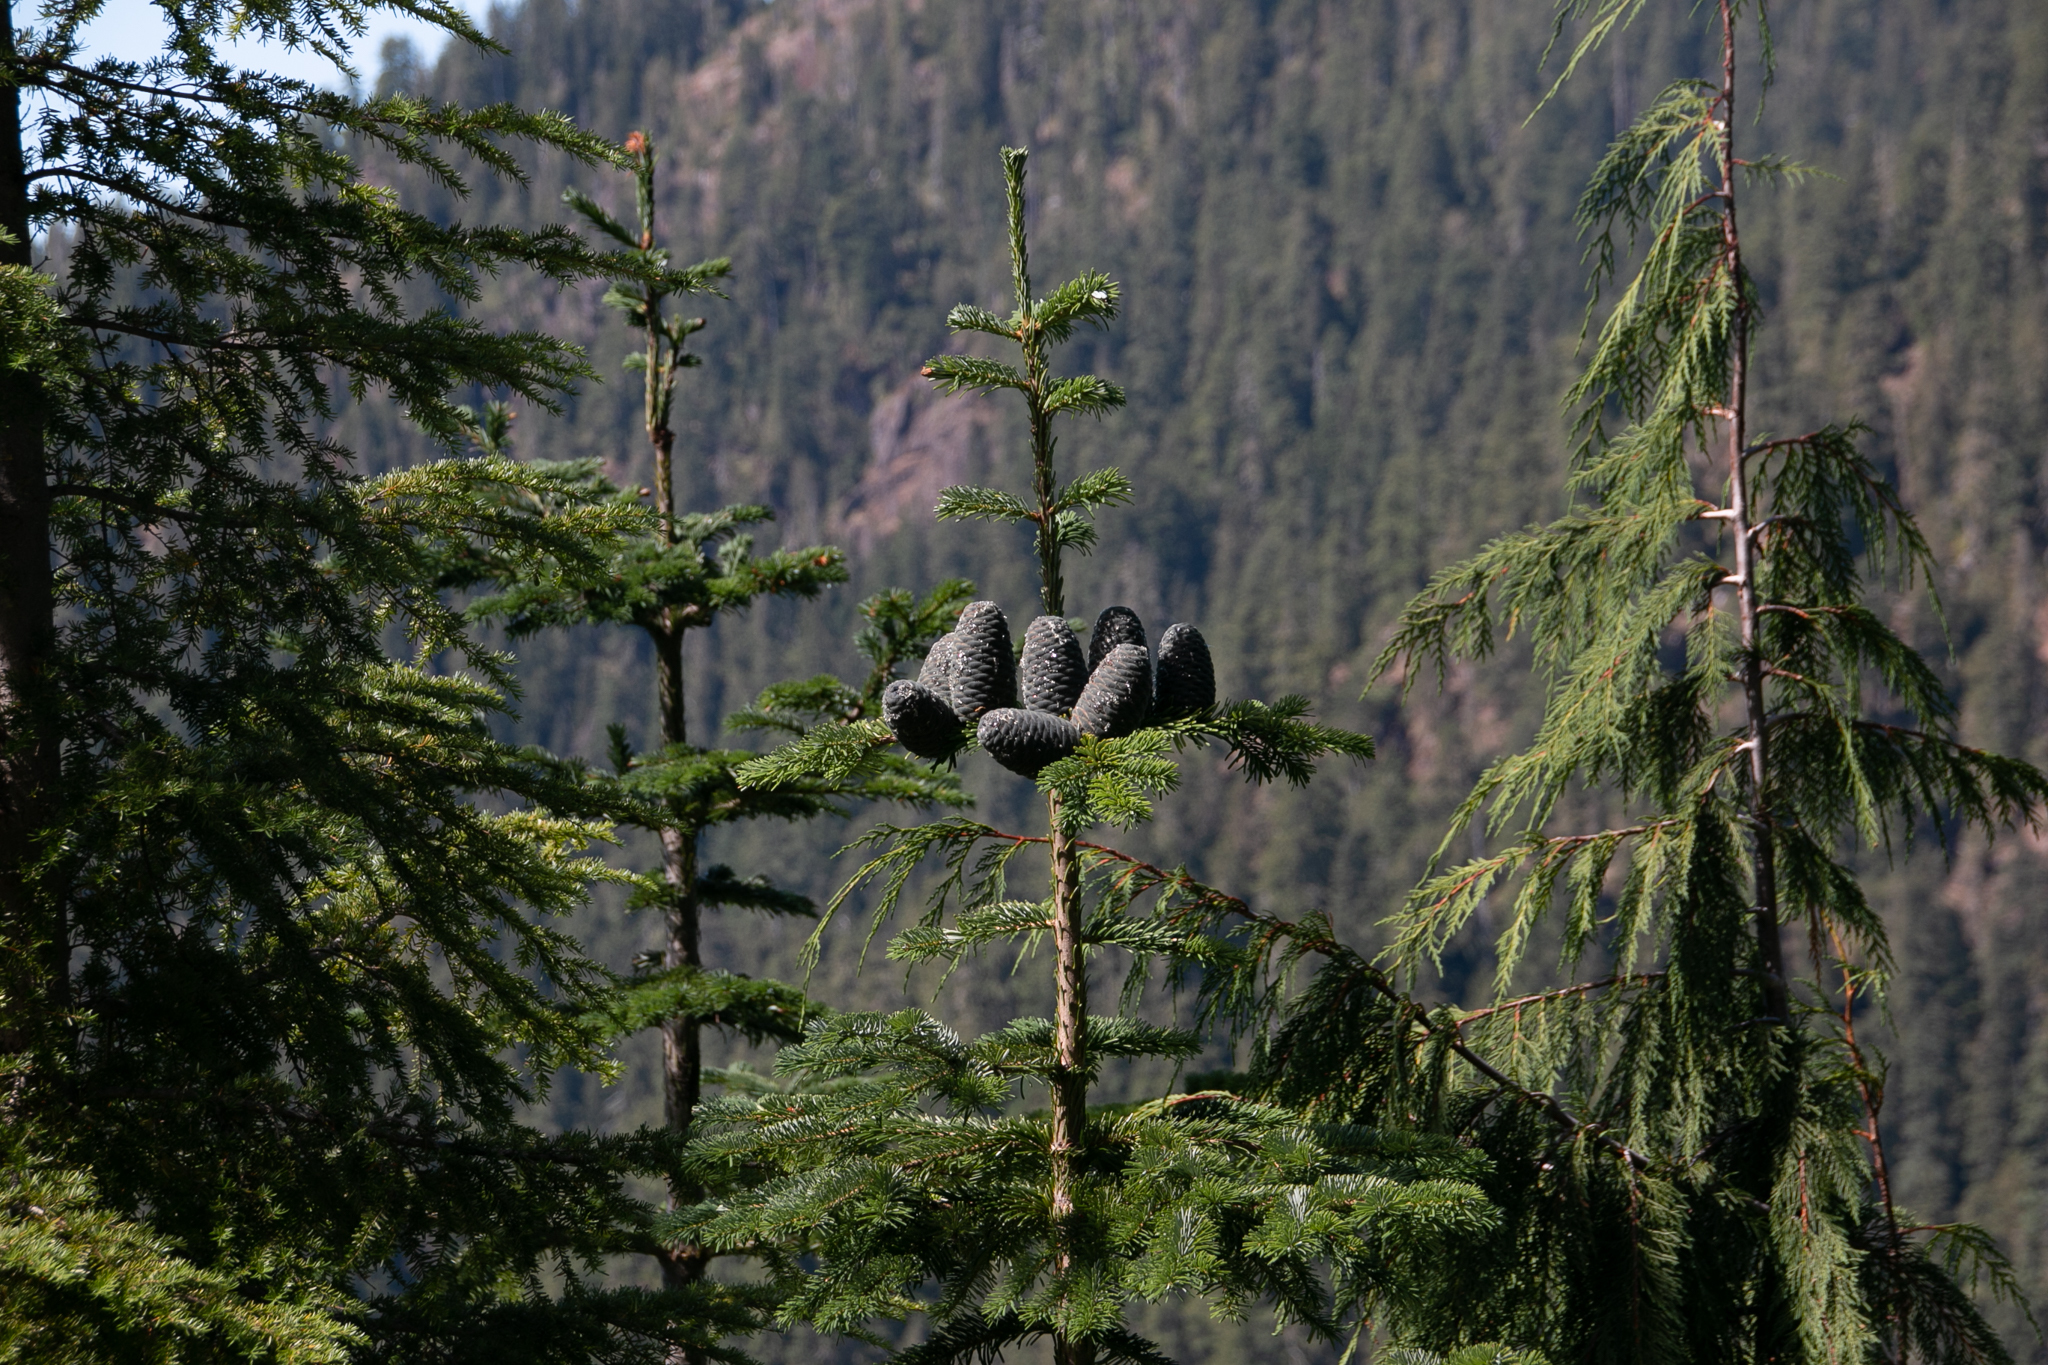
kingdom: Plantae
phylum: Tracheophyta
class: Pinopsida
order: Pinales
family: Cupressaceae
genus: Xanthocyparis
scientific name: Xanthocyparis nootkatensis
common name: Nootka cypress
